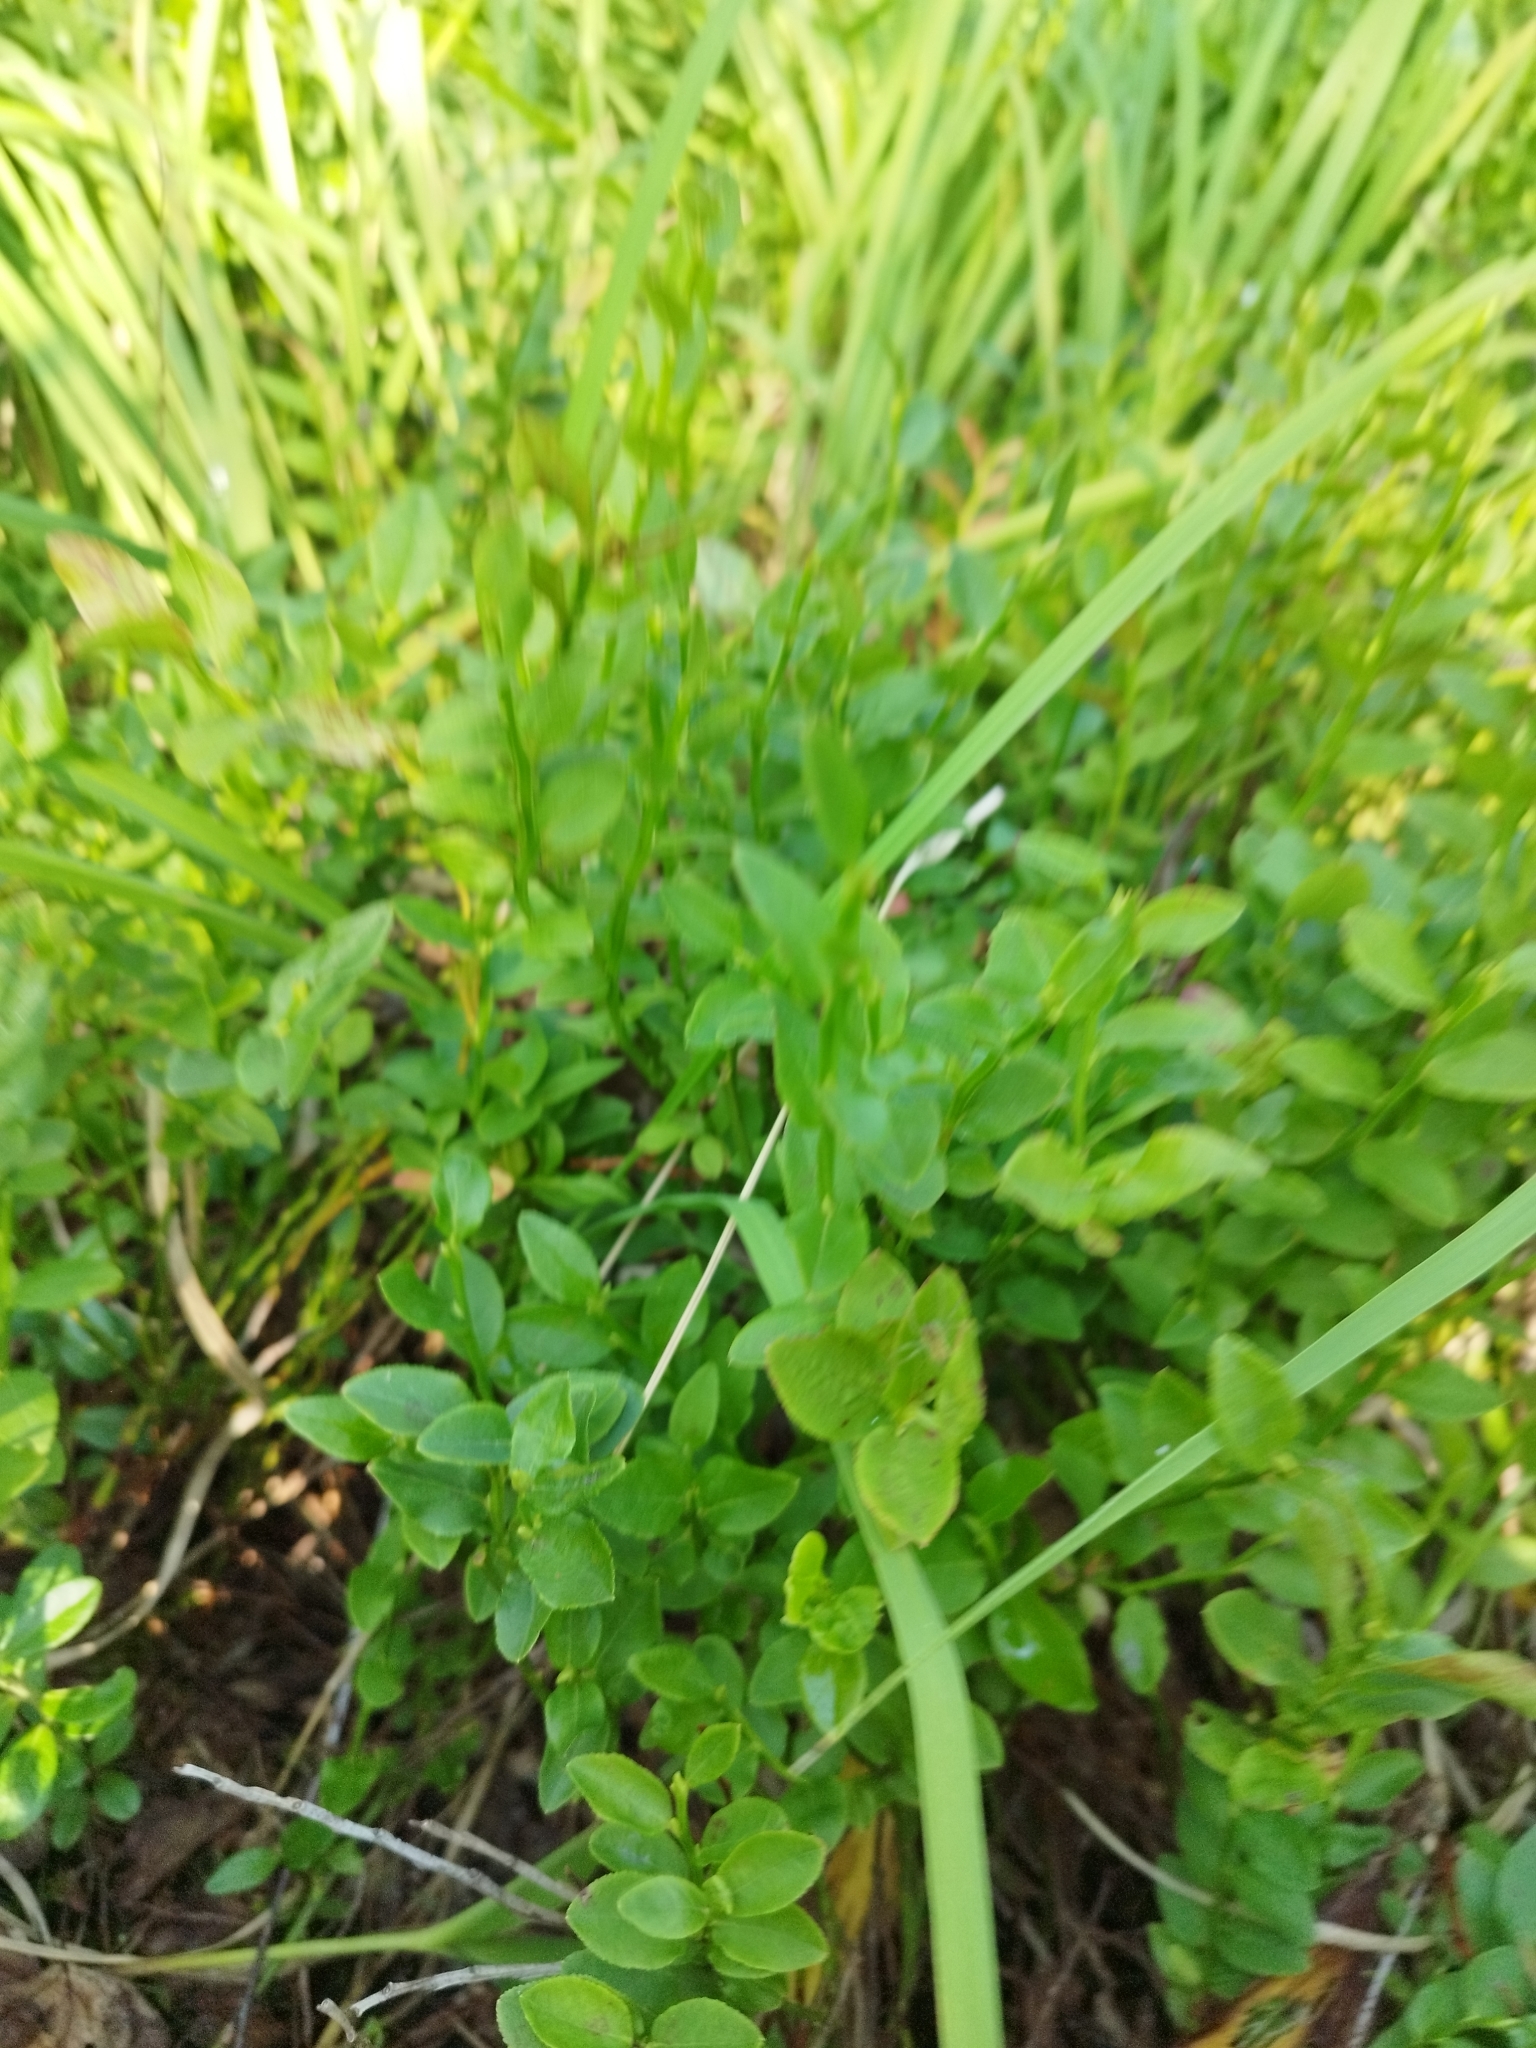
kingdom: Plantae
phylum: Tracheophyta
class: Magnoliopsida
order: Ericales
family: Ericaceae
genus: Vaccinium
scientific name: Vaccinium myrtillus
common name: Bilberry
